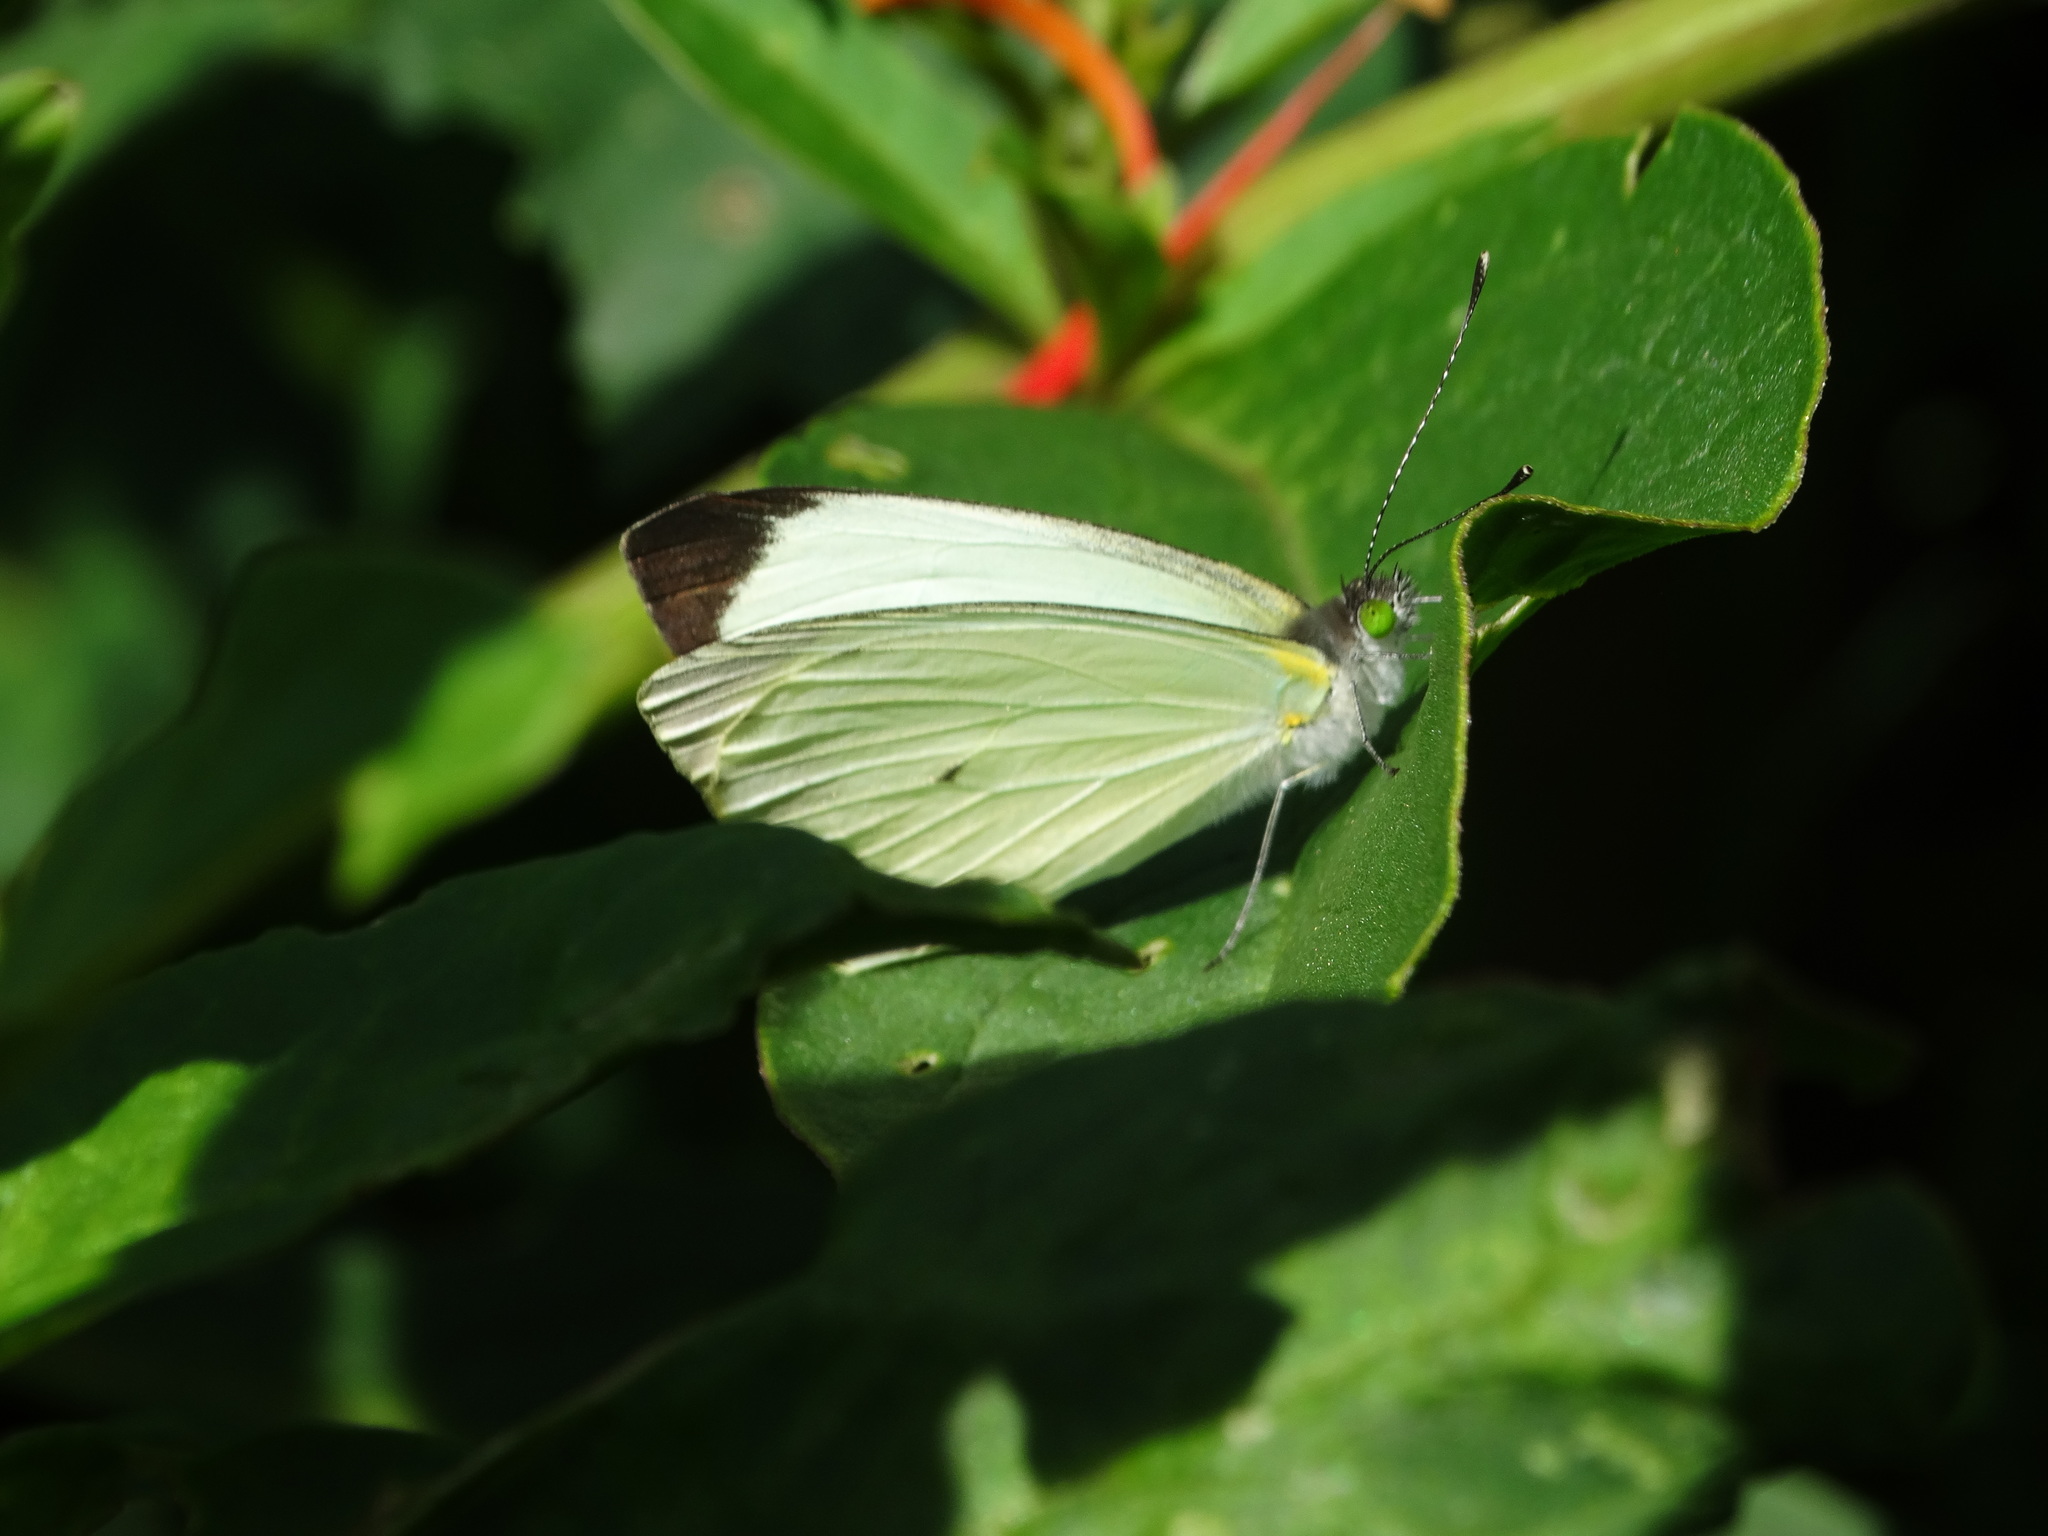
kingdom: Animalia
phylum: Arthropoda
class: Insecta
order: Lepidoptera
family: Pieridae
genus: Leptophobia
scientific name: Leptophobia aripa
